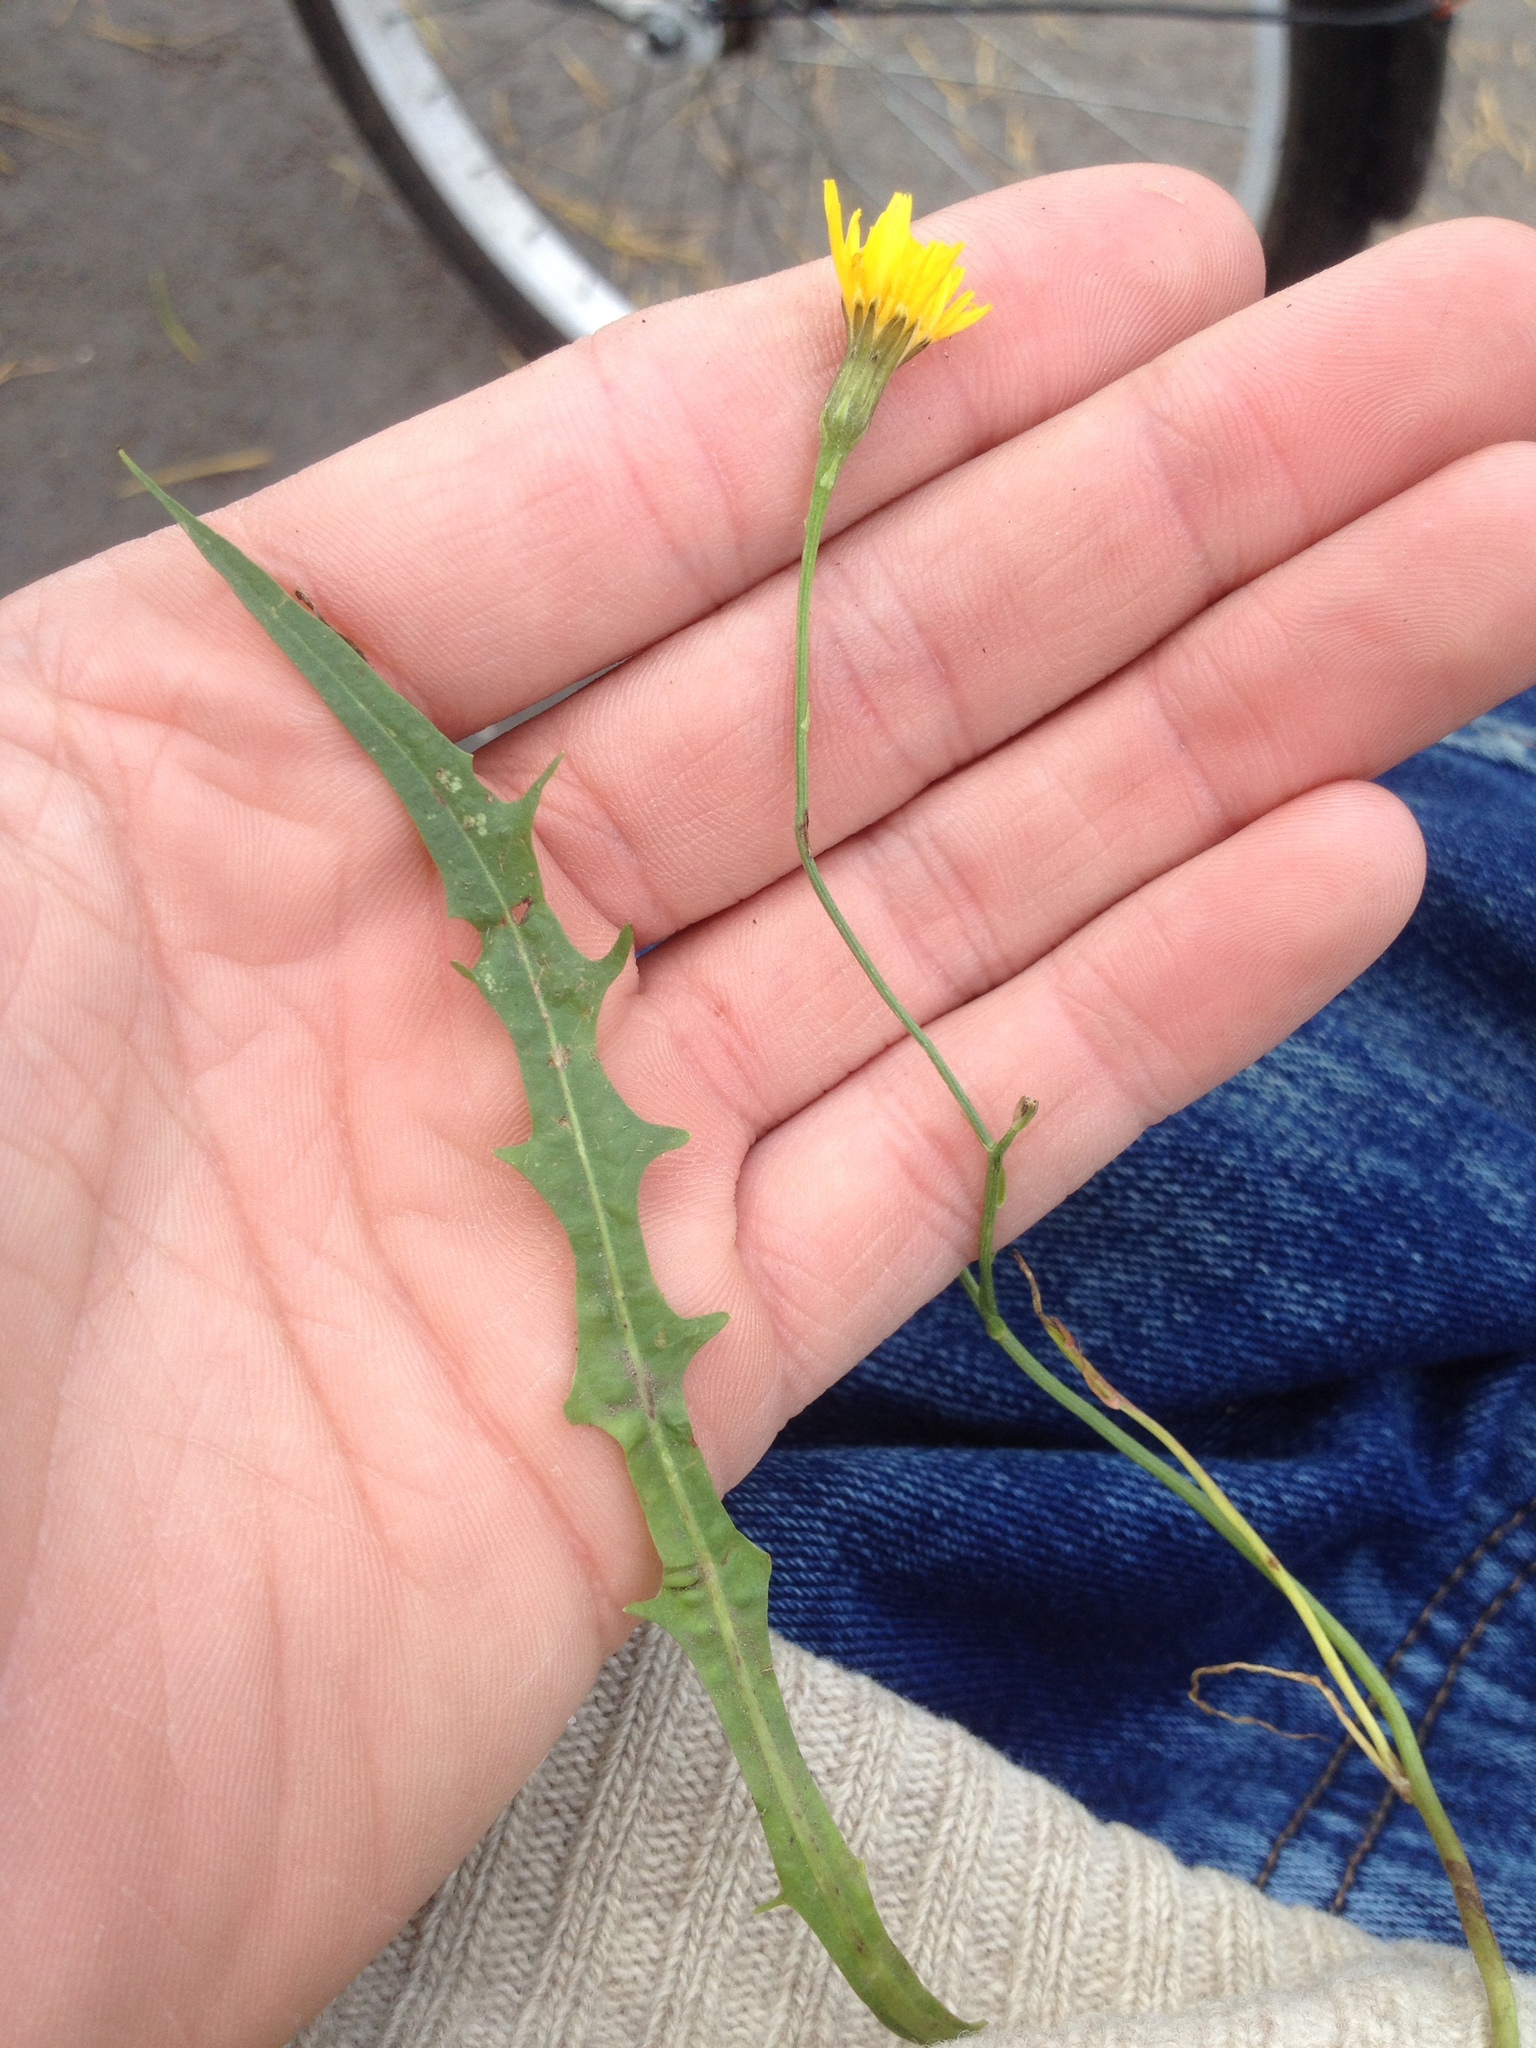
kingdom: Plantae
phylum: Tracheophyta
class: Magnoliopsida
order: Asterales
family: Asteraceae
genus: Scorzoneroides
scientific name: Scorzoneroides autumnalis
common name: Autumn hawkbit
